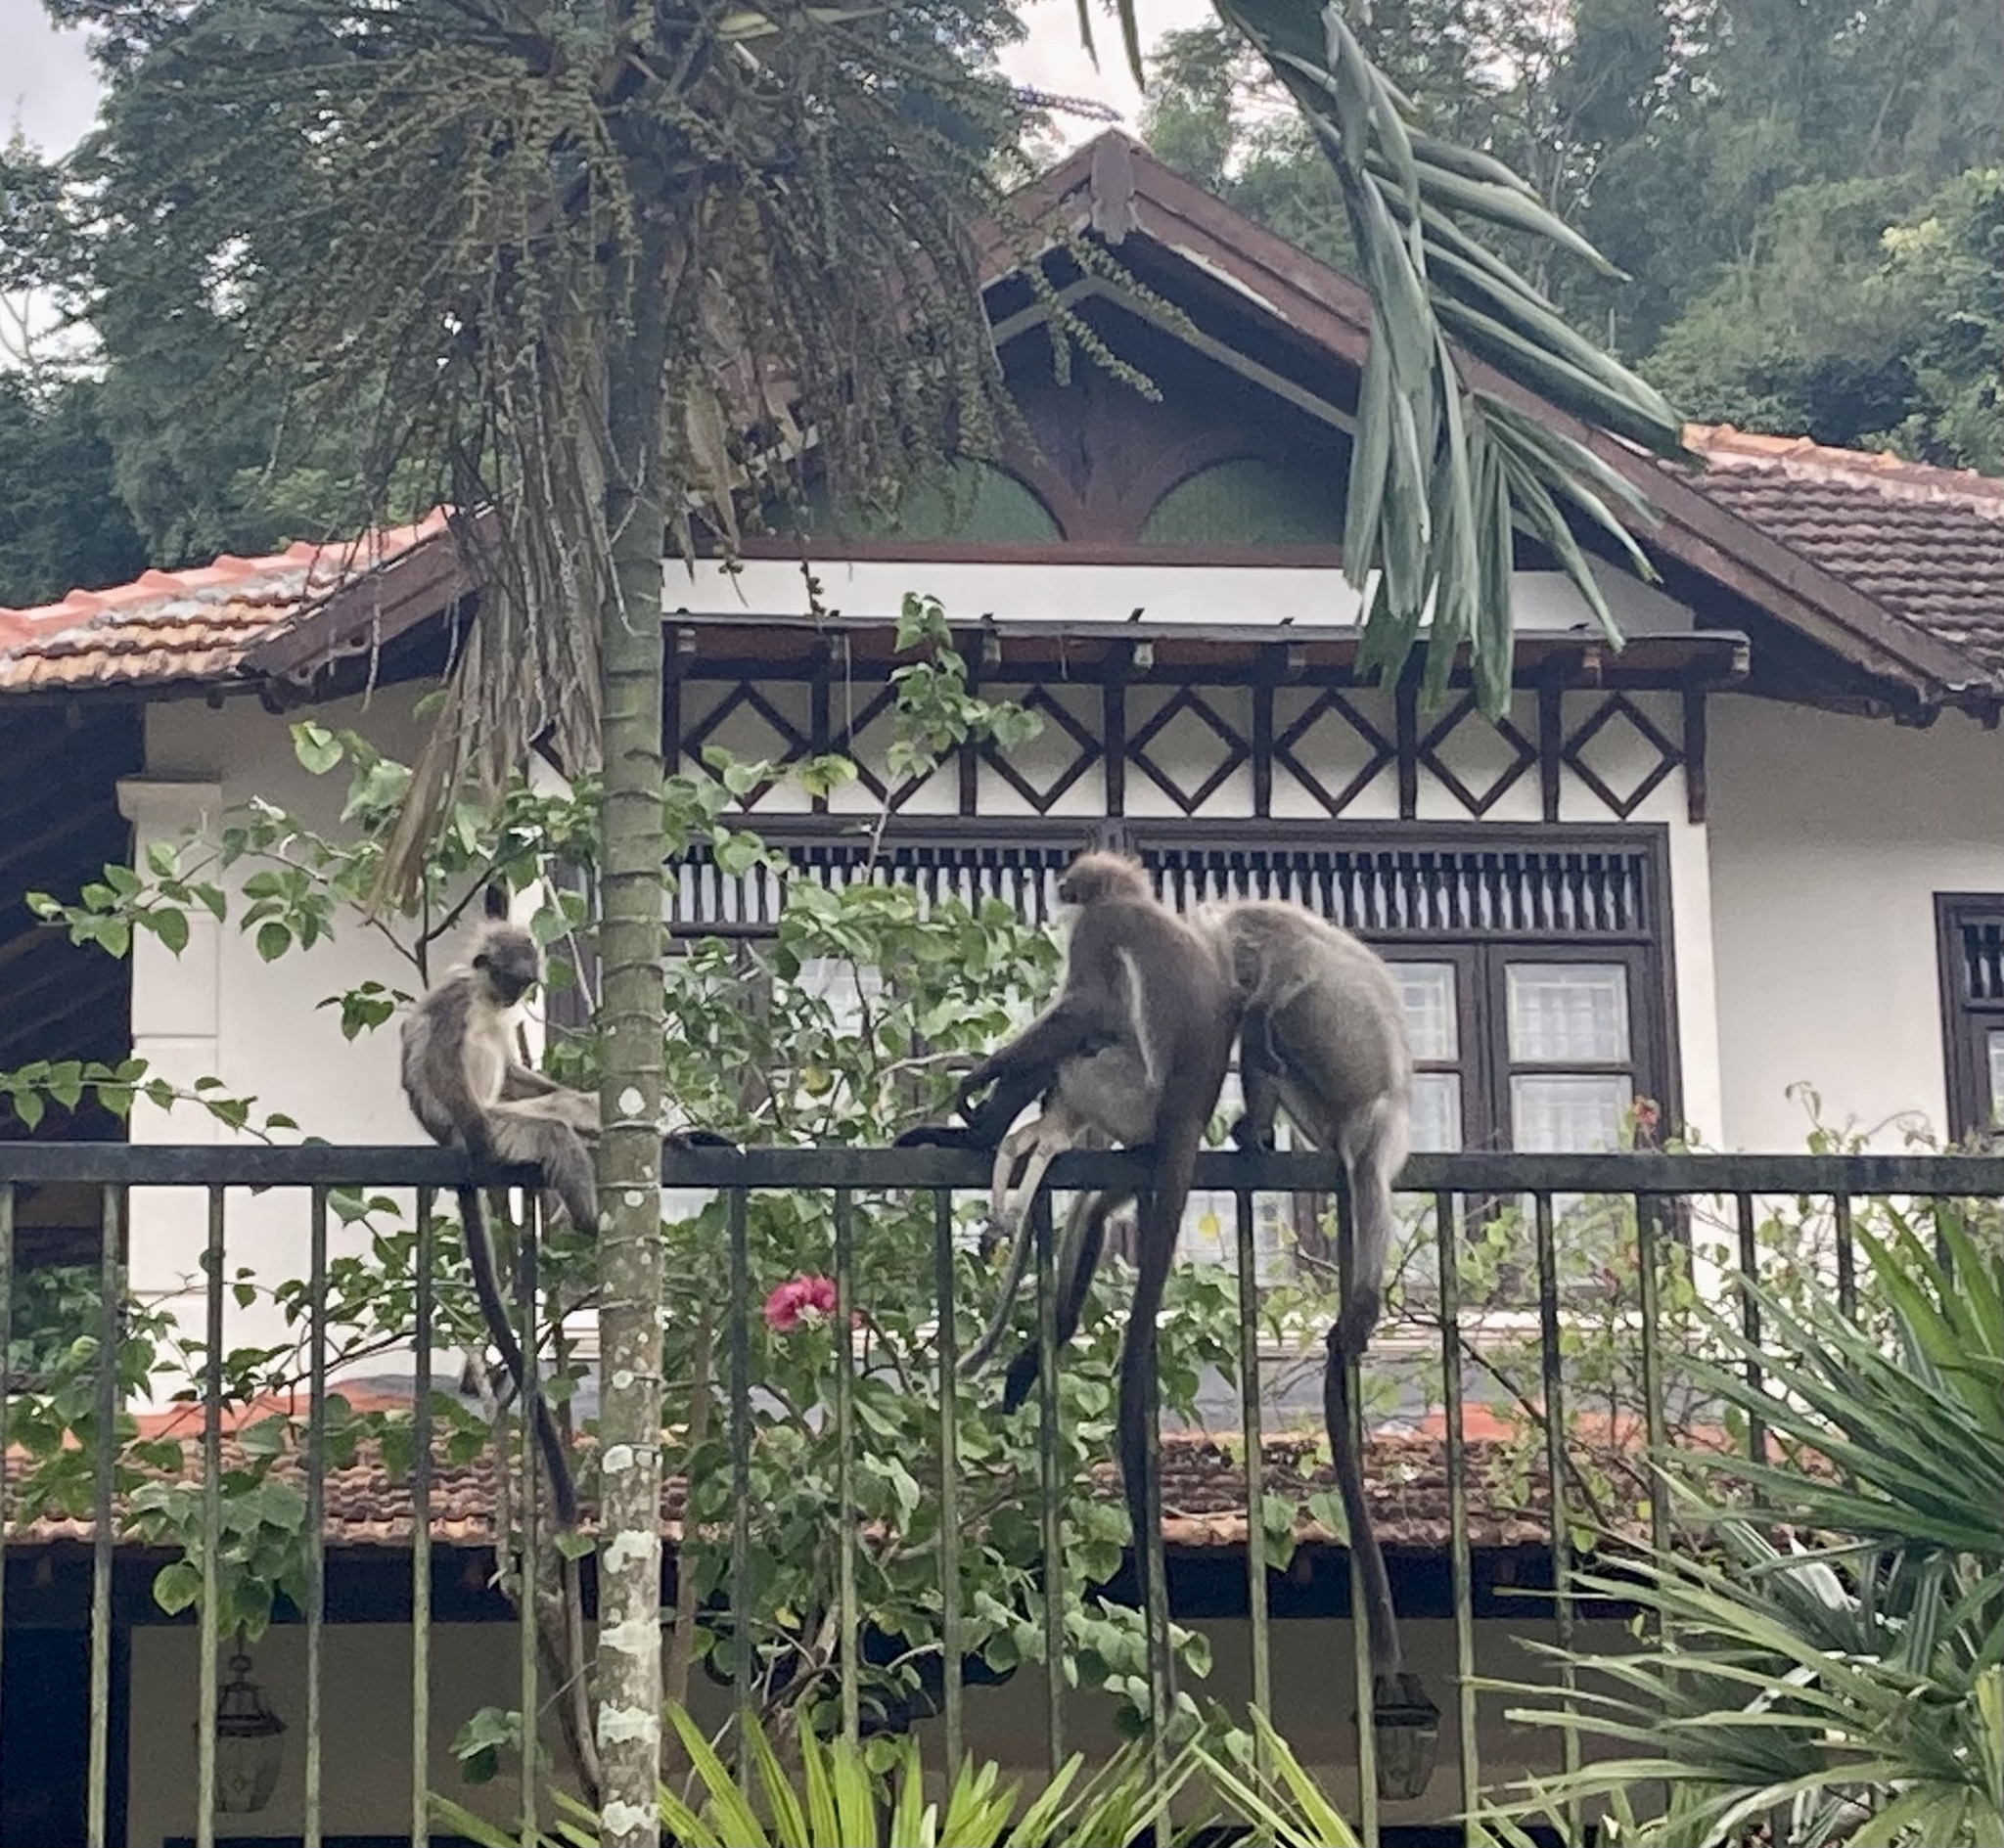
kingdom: Animalia
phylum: Chordata
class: Mammalia
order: Primates
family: Cercopithecidae
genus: Presbytis
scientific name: Presbytis siamensis
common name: White-thighed surili
